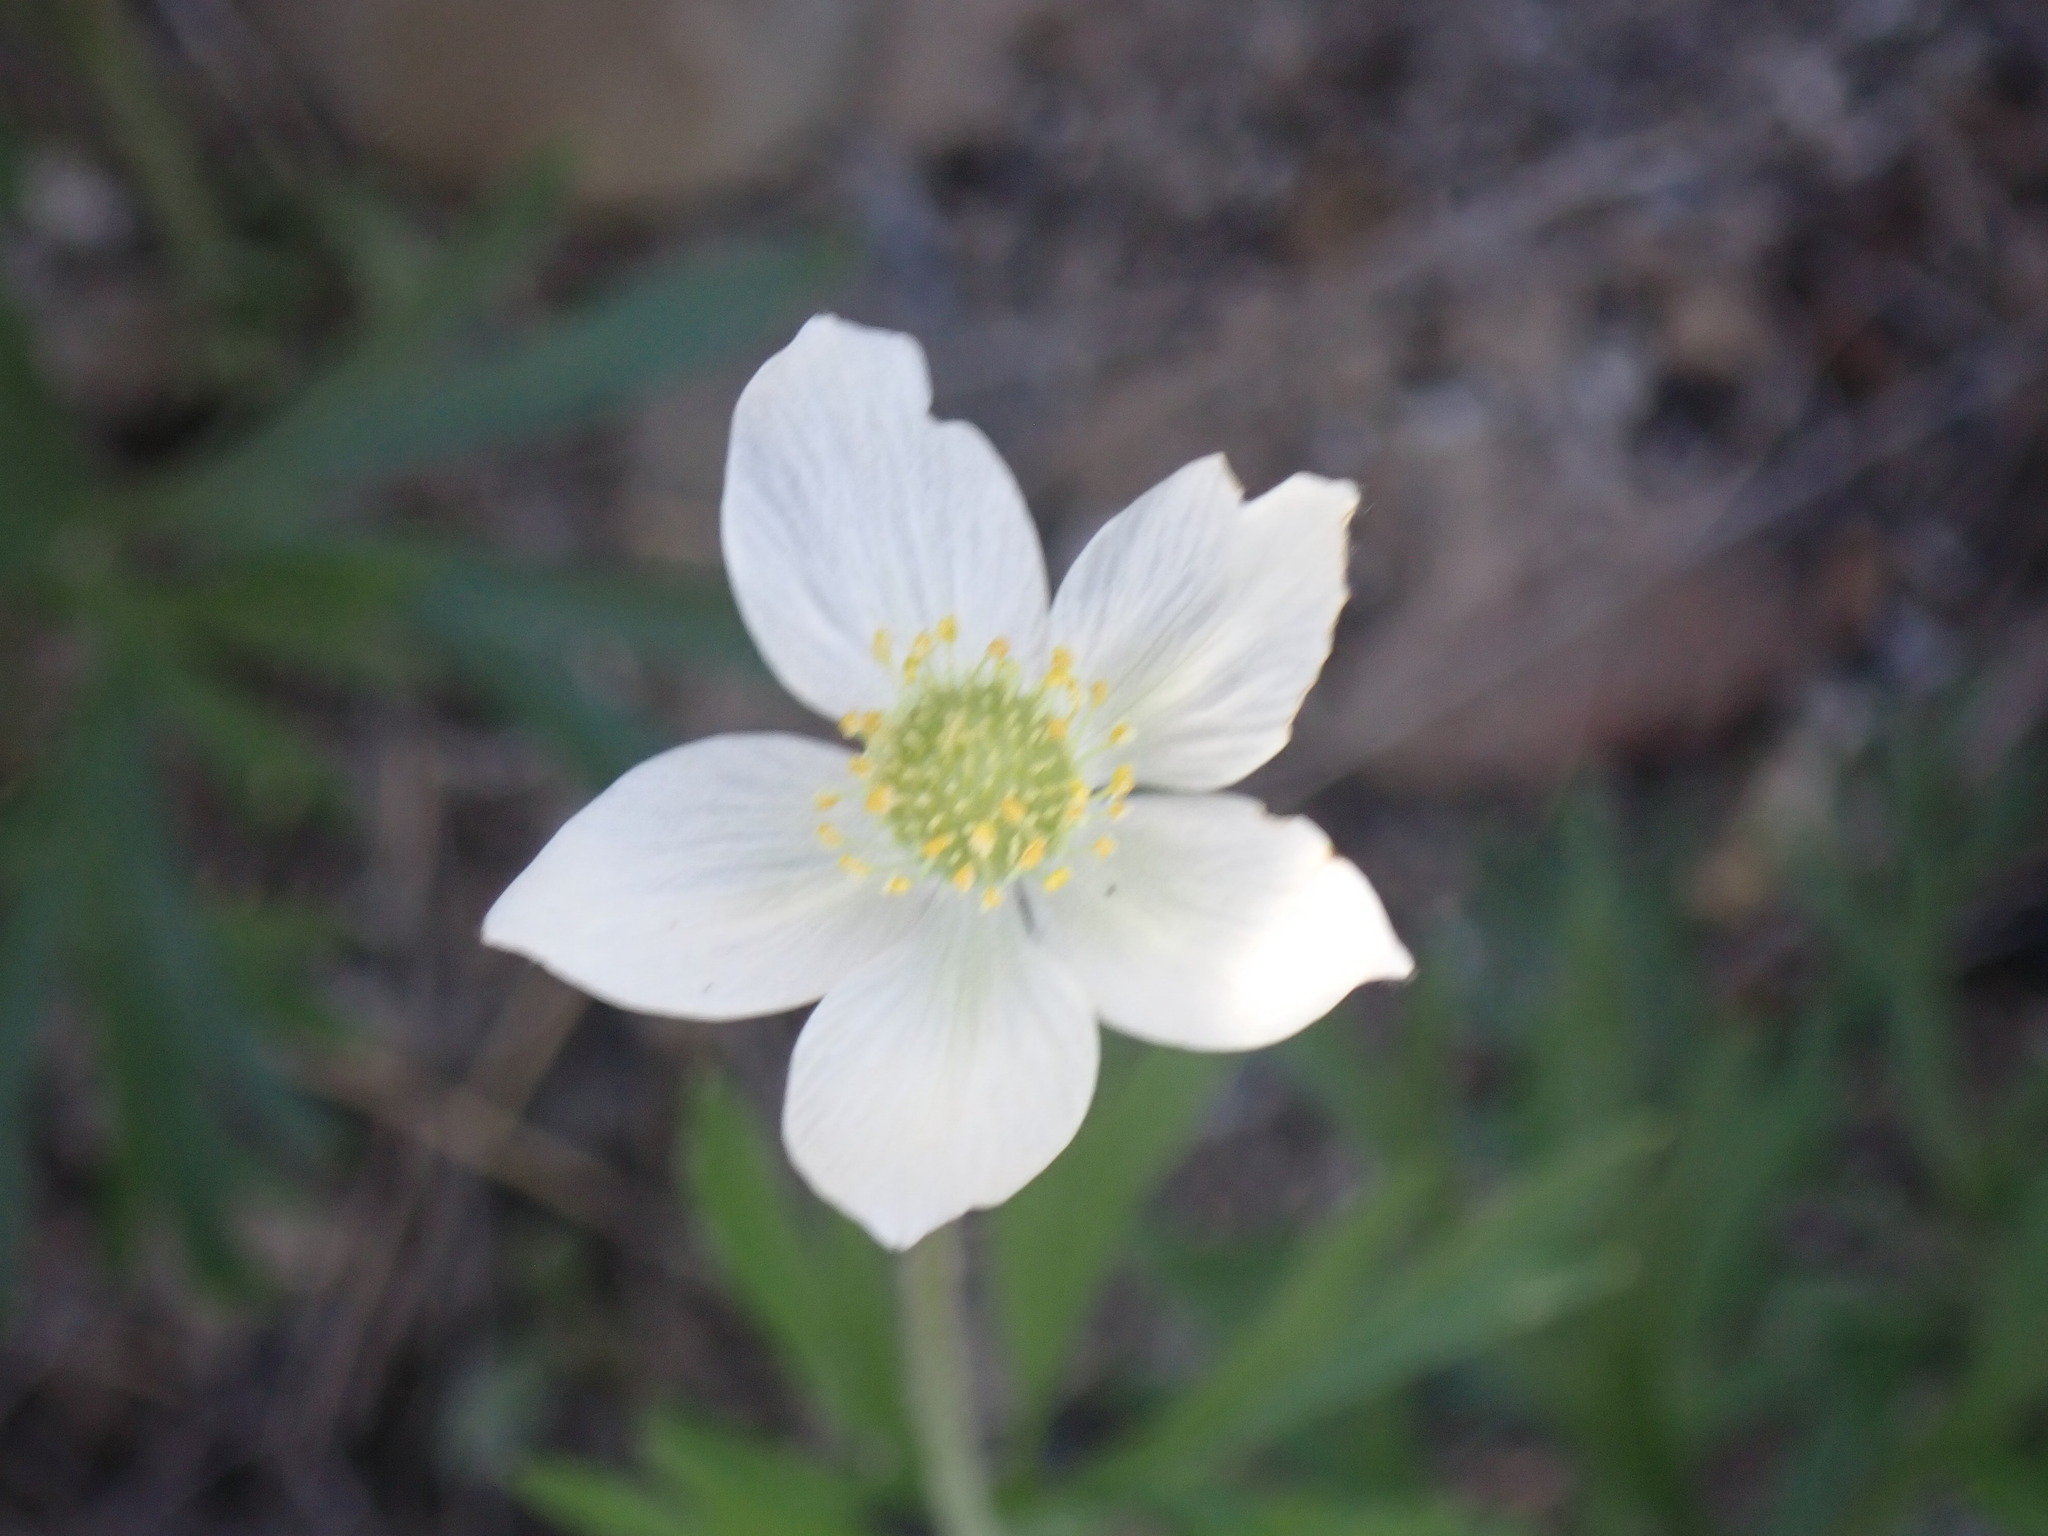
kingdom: Plantae
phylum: Tracheophyta
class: Magnoliopsida
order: Ranunculales
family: Ranunculaceae
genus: Anemone
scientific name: Anemone multifida
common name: Bird's-foot anemone
